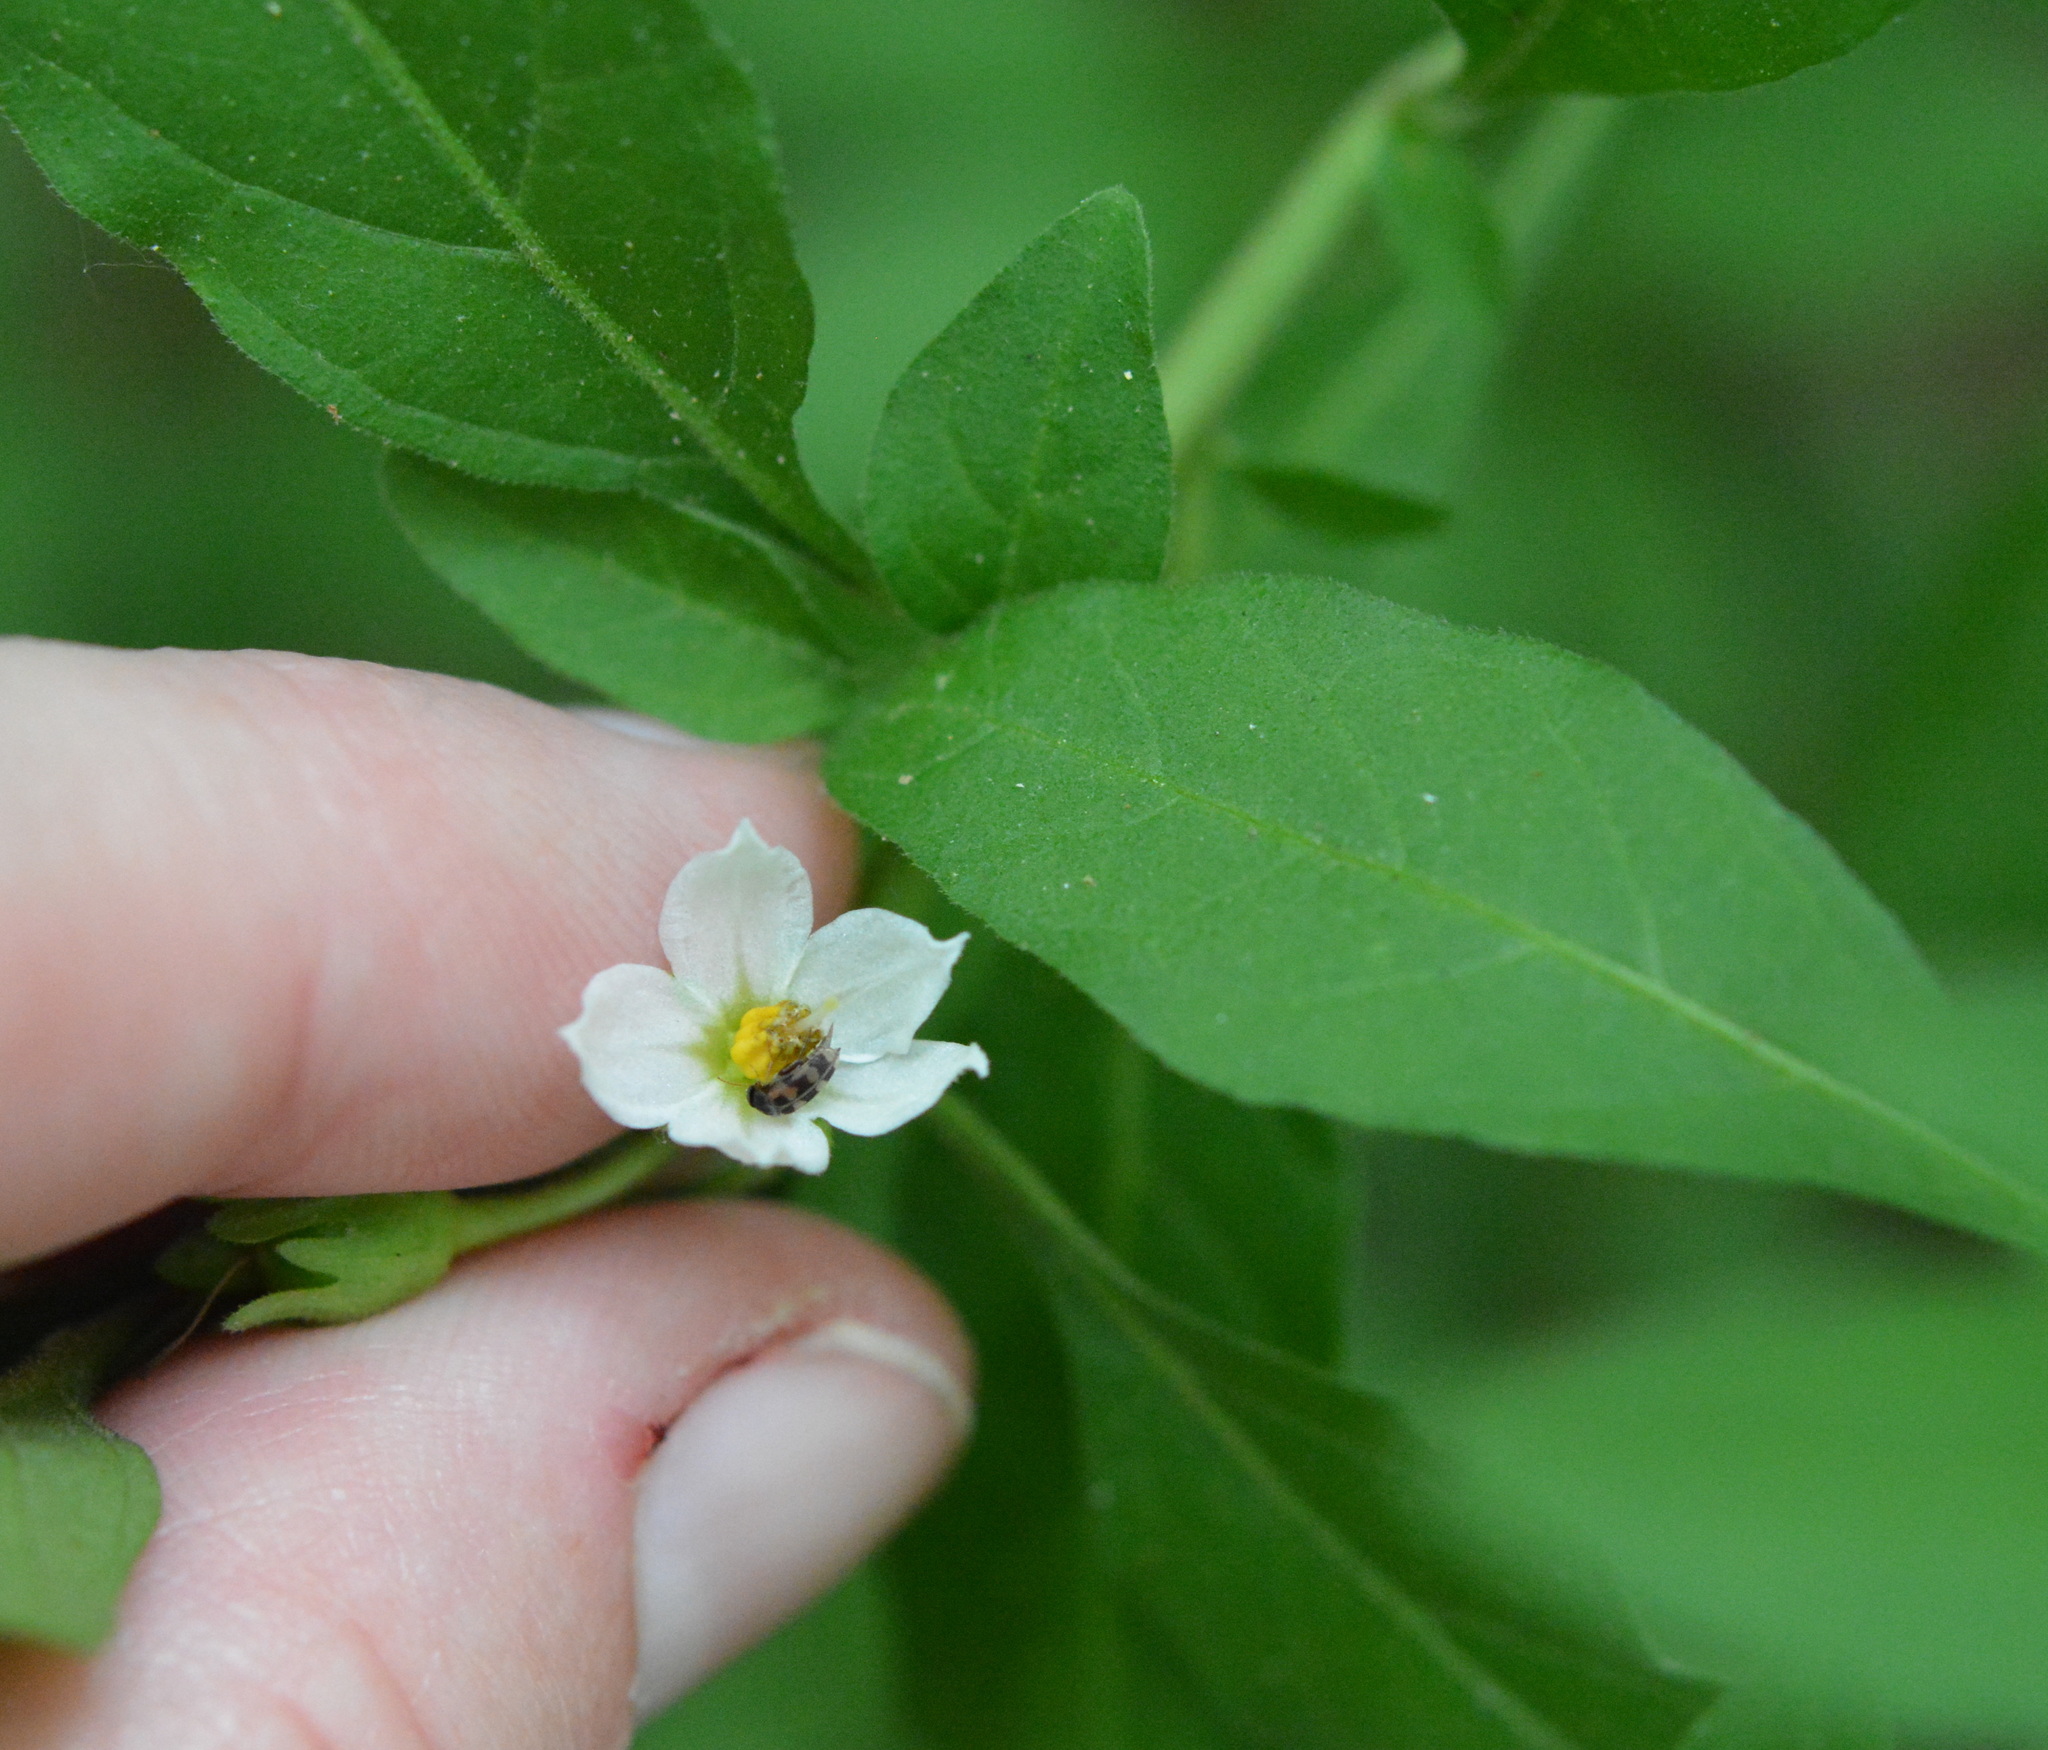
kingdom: Plantae
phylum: Tracheophyta
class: Magnoliopsida
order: Solanales
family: Solanaceae
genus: Solanum
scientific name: Solanum pseudocapsicum
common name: Jerusalem cherry
